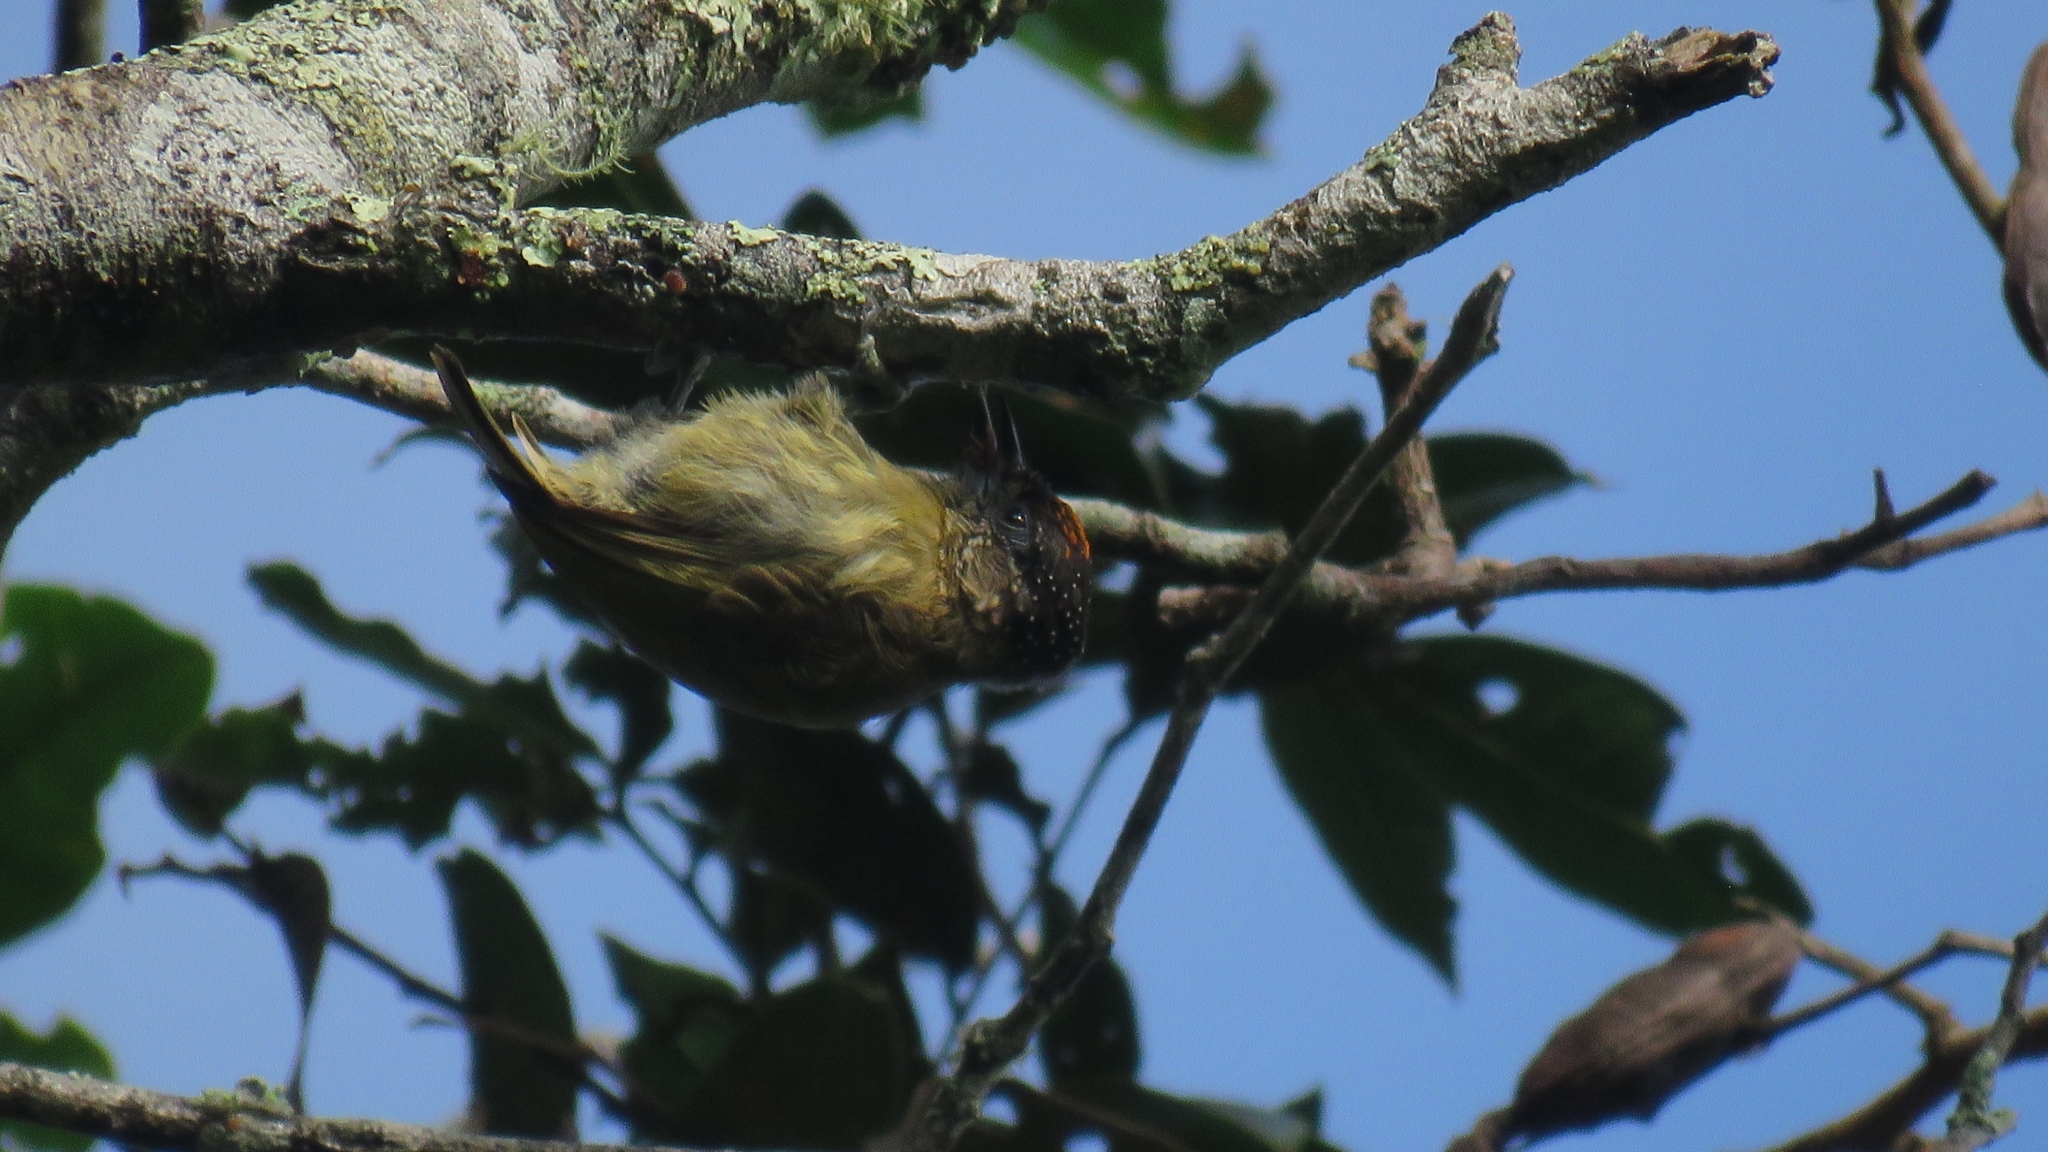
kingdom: Animalia
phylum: Chordata
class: Aves
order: Piciformes
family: Picidae
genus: Picumnus
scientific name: Picumnus olivaceus
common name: Olivaceous piculet
